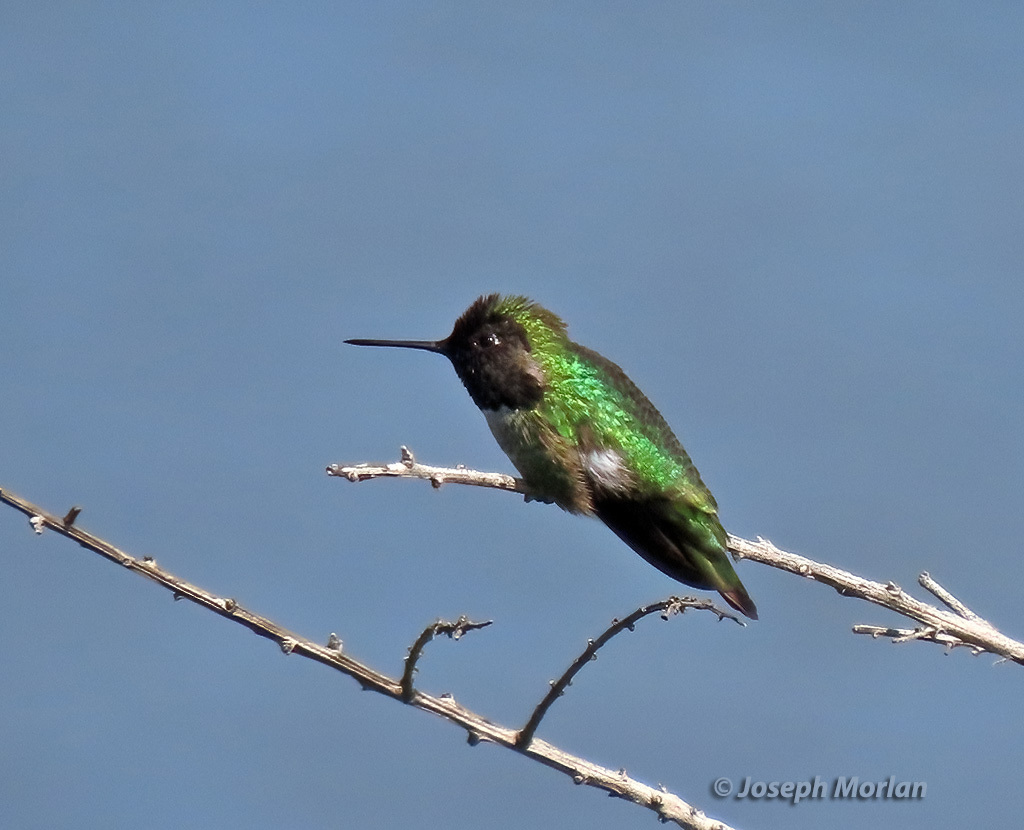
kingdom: Animalia
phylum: Chordata
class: Aves
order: Apodiformes
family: Trochilidae
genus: Calypte
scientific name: Calypte anna
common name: Anna's hummingbird
